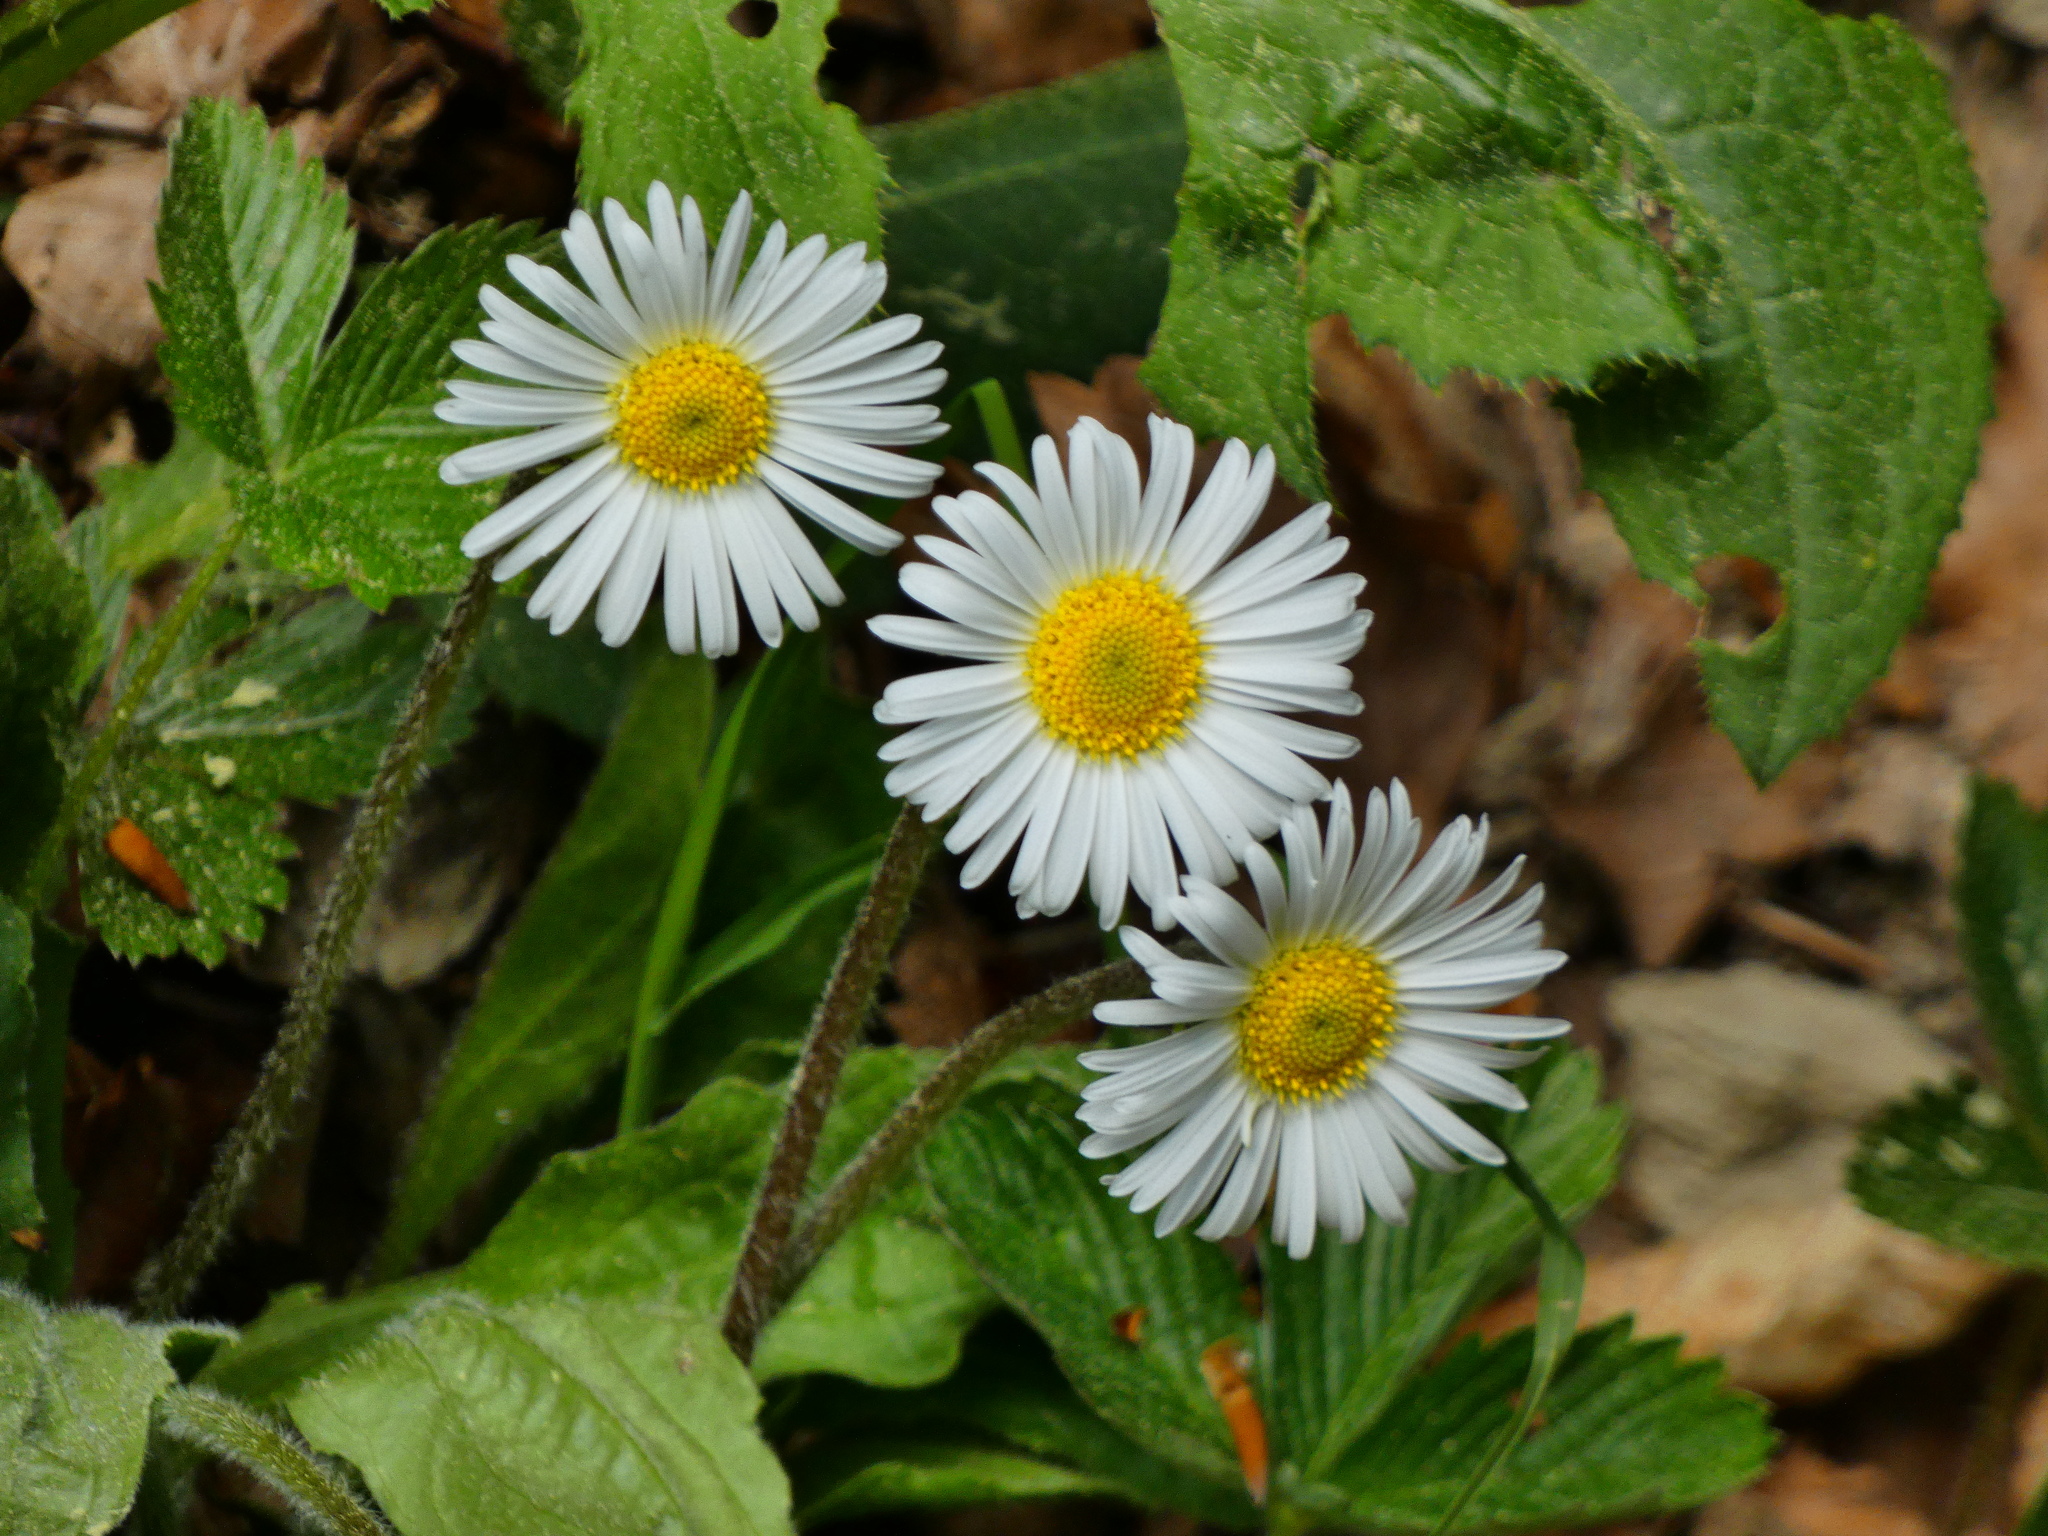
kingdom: Plantae
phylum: Tracheophyta
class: Magnoliopsida
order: Asterales
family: Asteraceae
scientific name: Asteraceae
